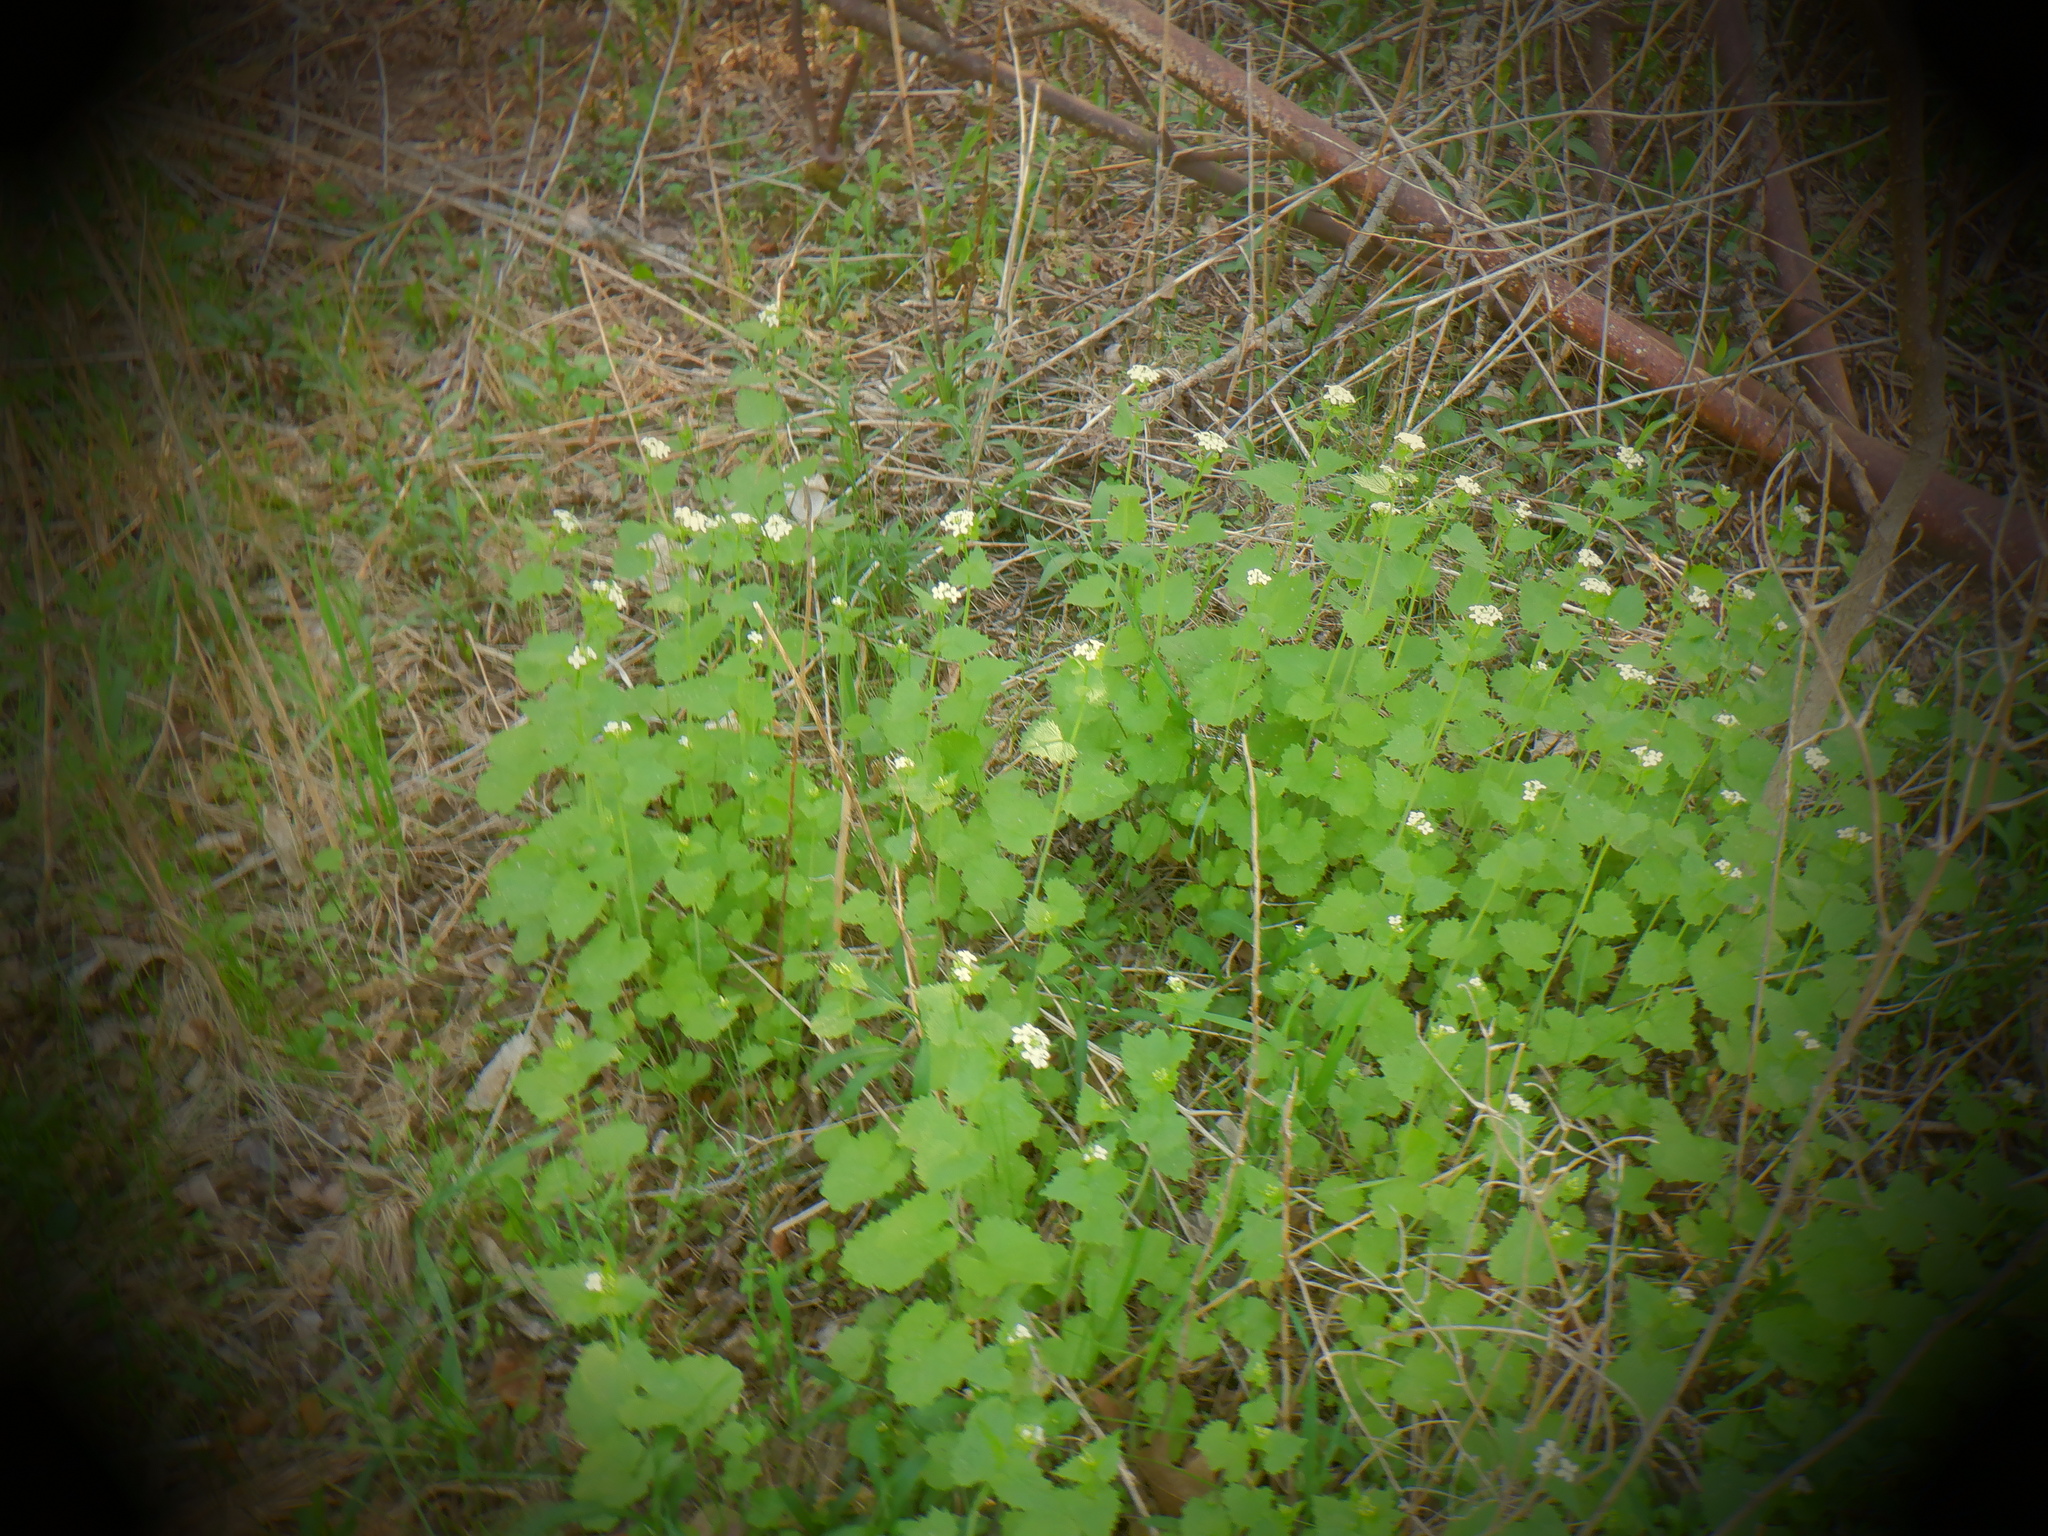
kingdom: Plantae
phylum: Tracheophyta
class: Magnoliopsida
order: Brassicales
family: Brassicaceae
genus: Alliaria
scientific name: Alliaria petiolata
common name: Garlic mustard
